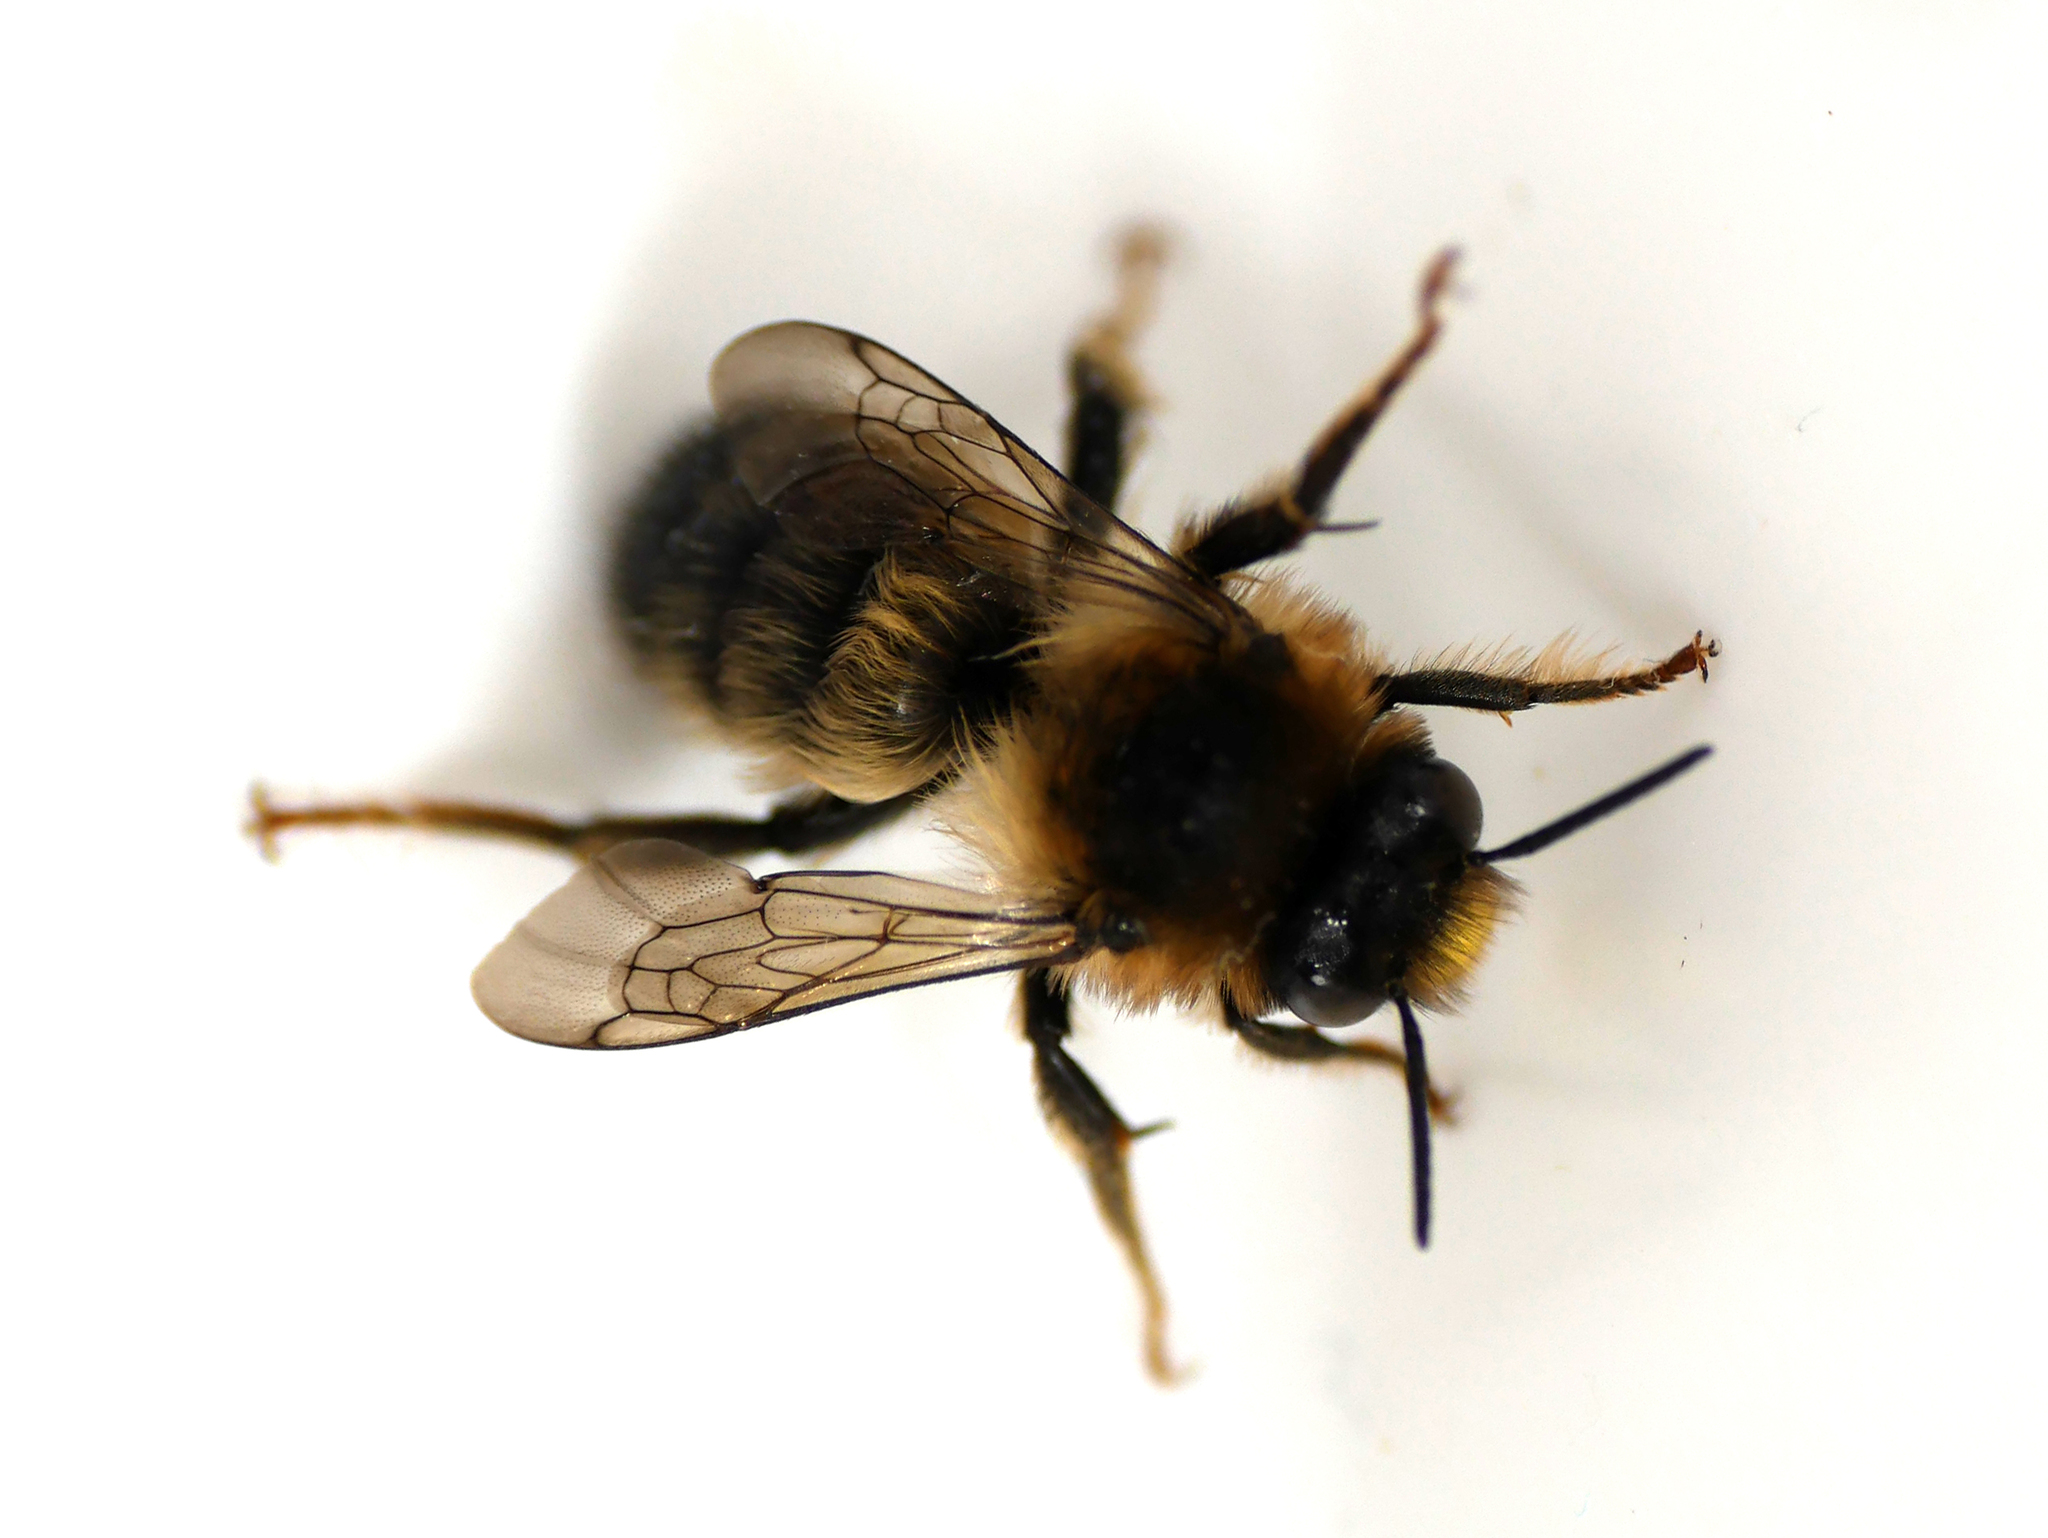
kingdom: Animalia
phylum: Arthropoda
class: Insecta
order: Hymenoptera
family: Apidae
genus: Anthophora
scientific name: Anthophora furcata
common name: Fork-tailed flower bee
